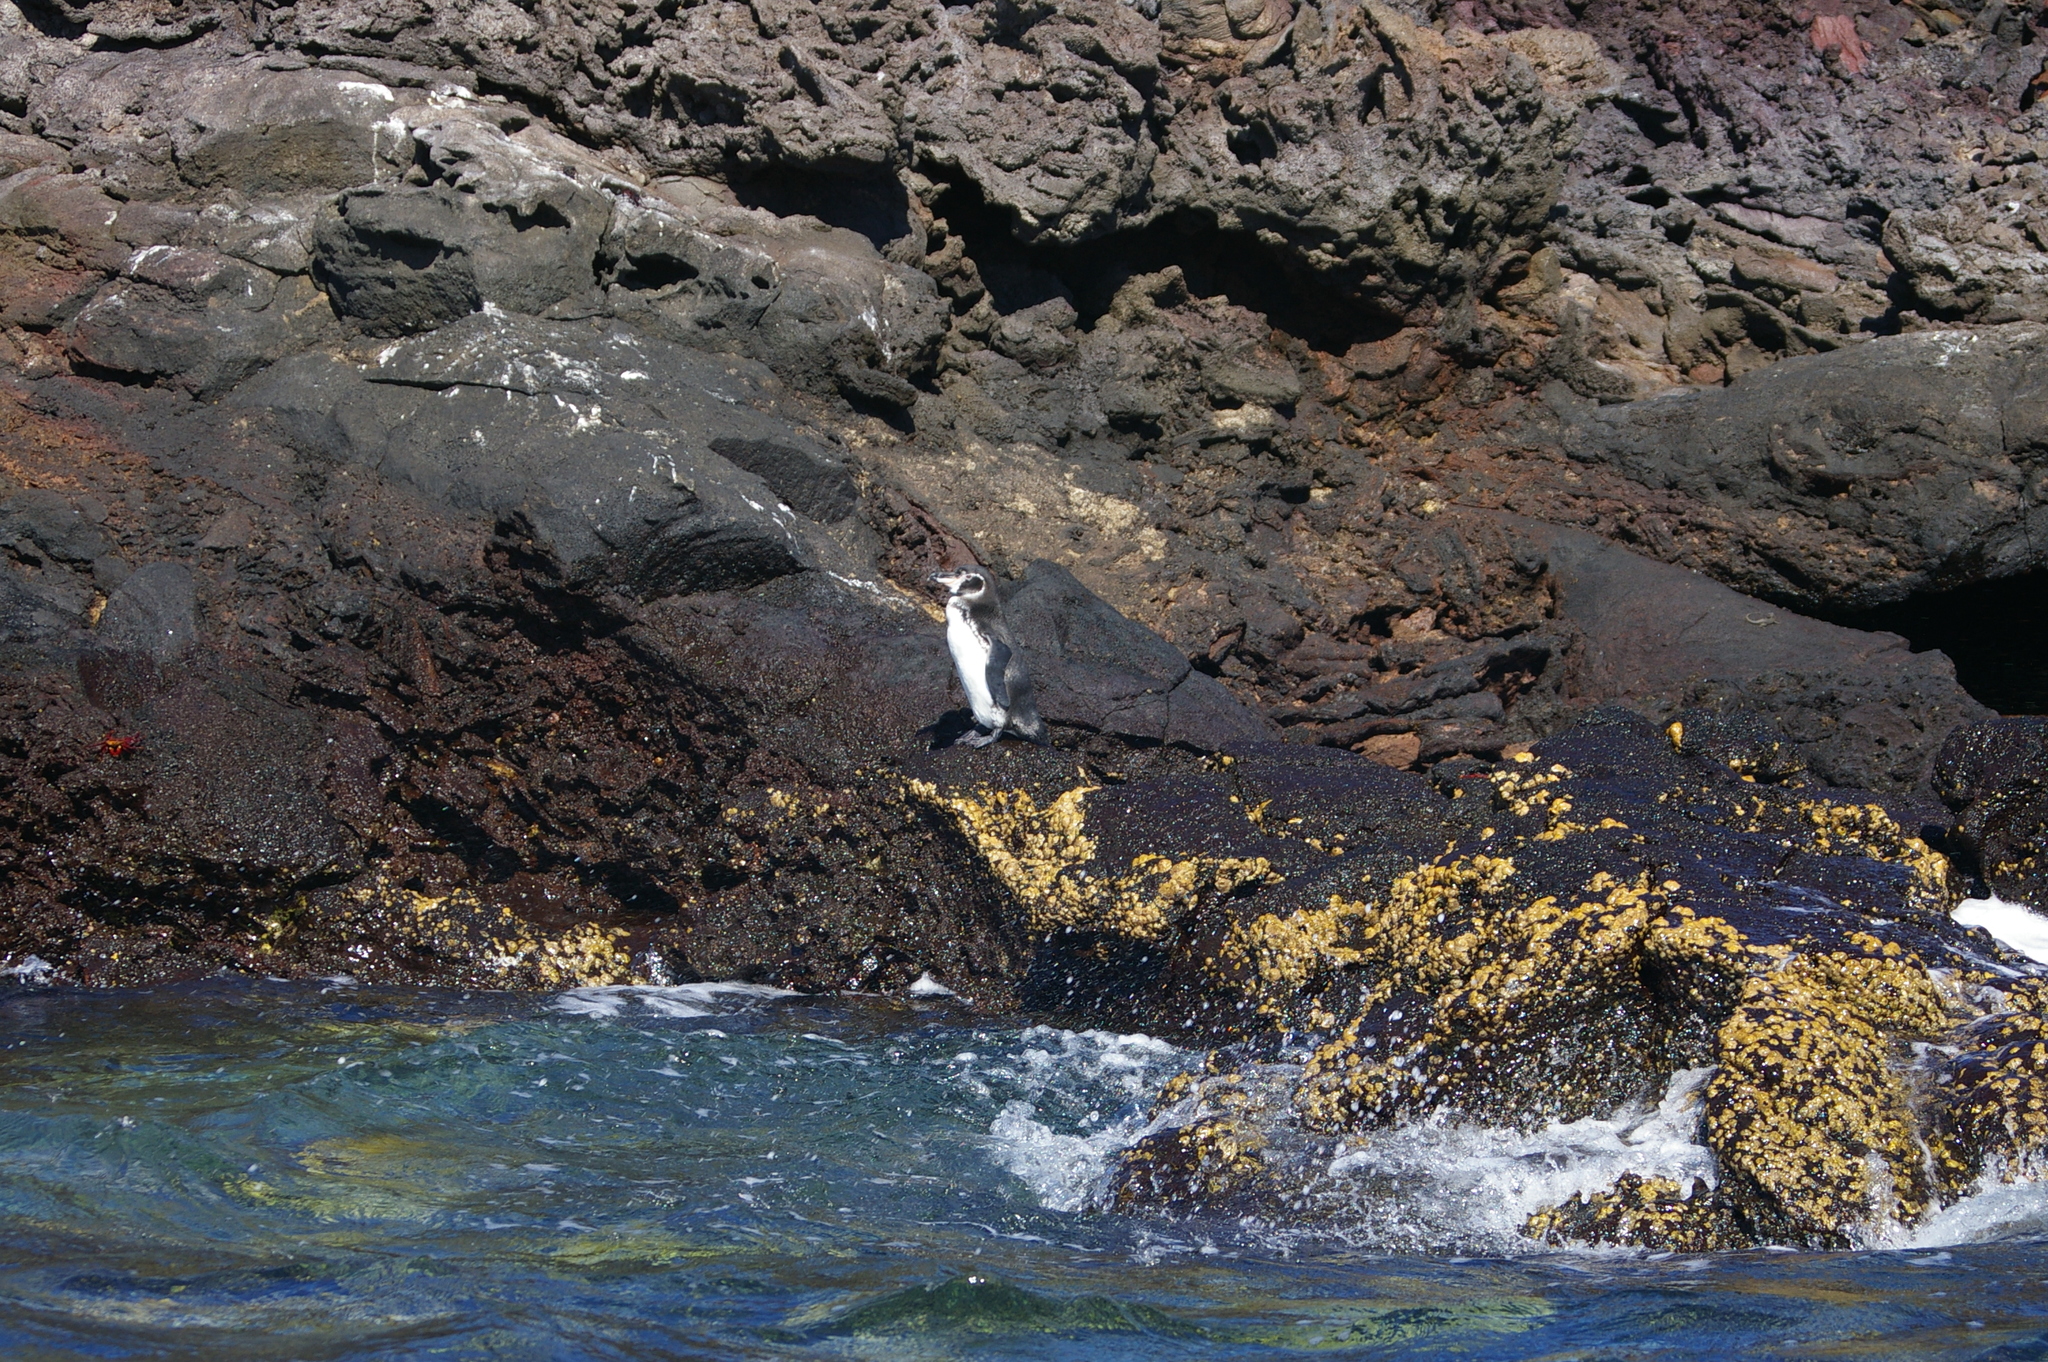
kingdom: Animalia
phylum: Chordata
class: Aves
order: Sphenisciformes
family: Spheniscidae
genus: Spheniscus
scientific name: Spheniscus mendiculus
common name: Galapagos penguin
